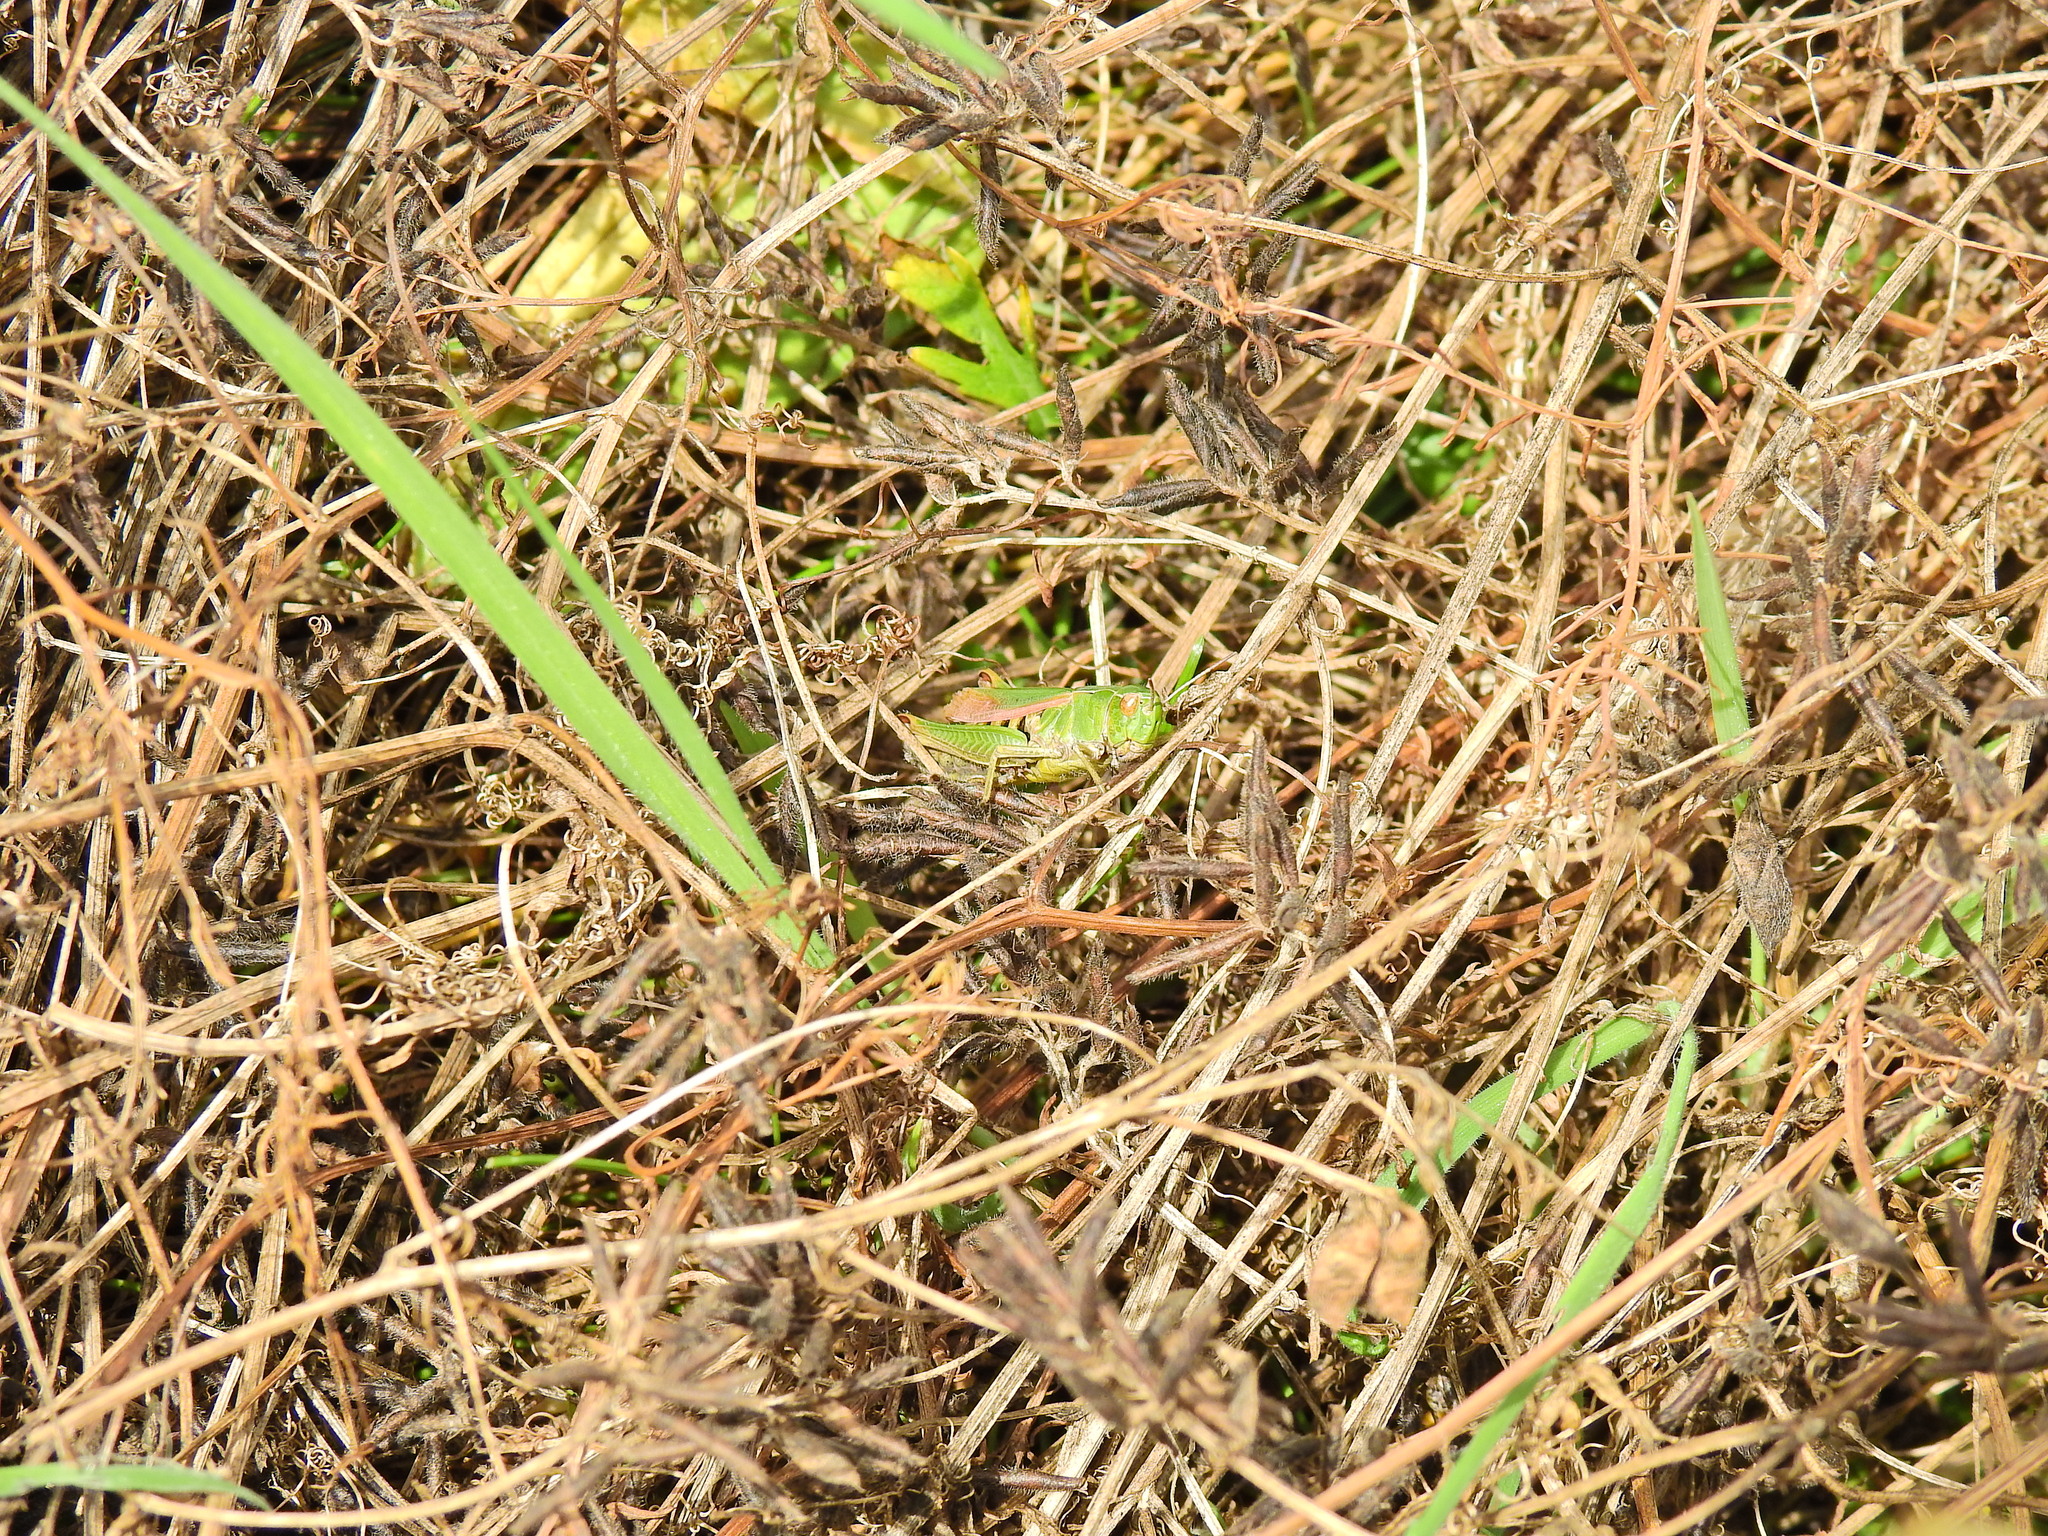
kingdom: Animalia
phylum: Arthropoda
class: Insecta
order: Orthoptera
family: Acrididae
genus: Omocestus
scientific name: Omocestus viridulus
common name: Common green grasshopper
